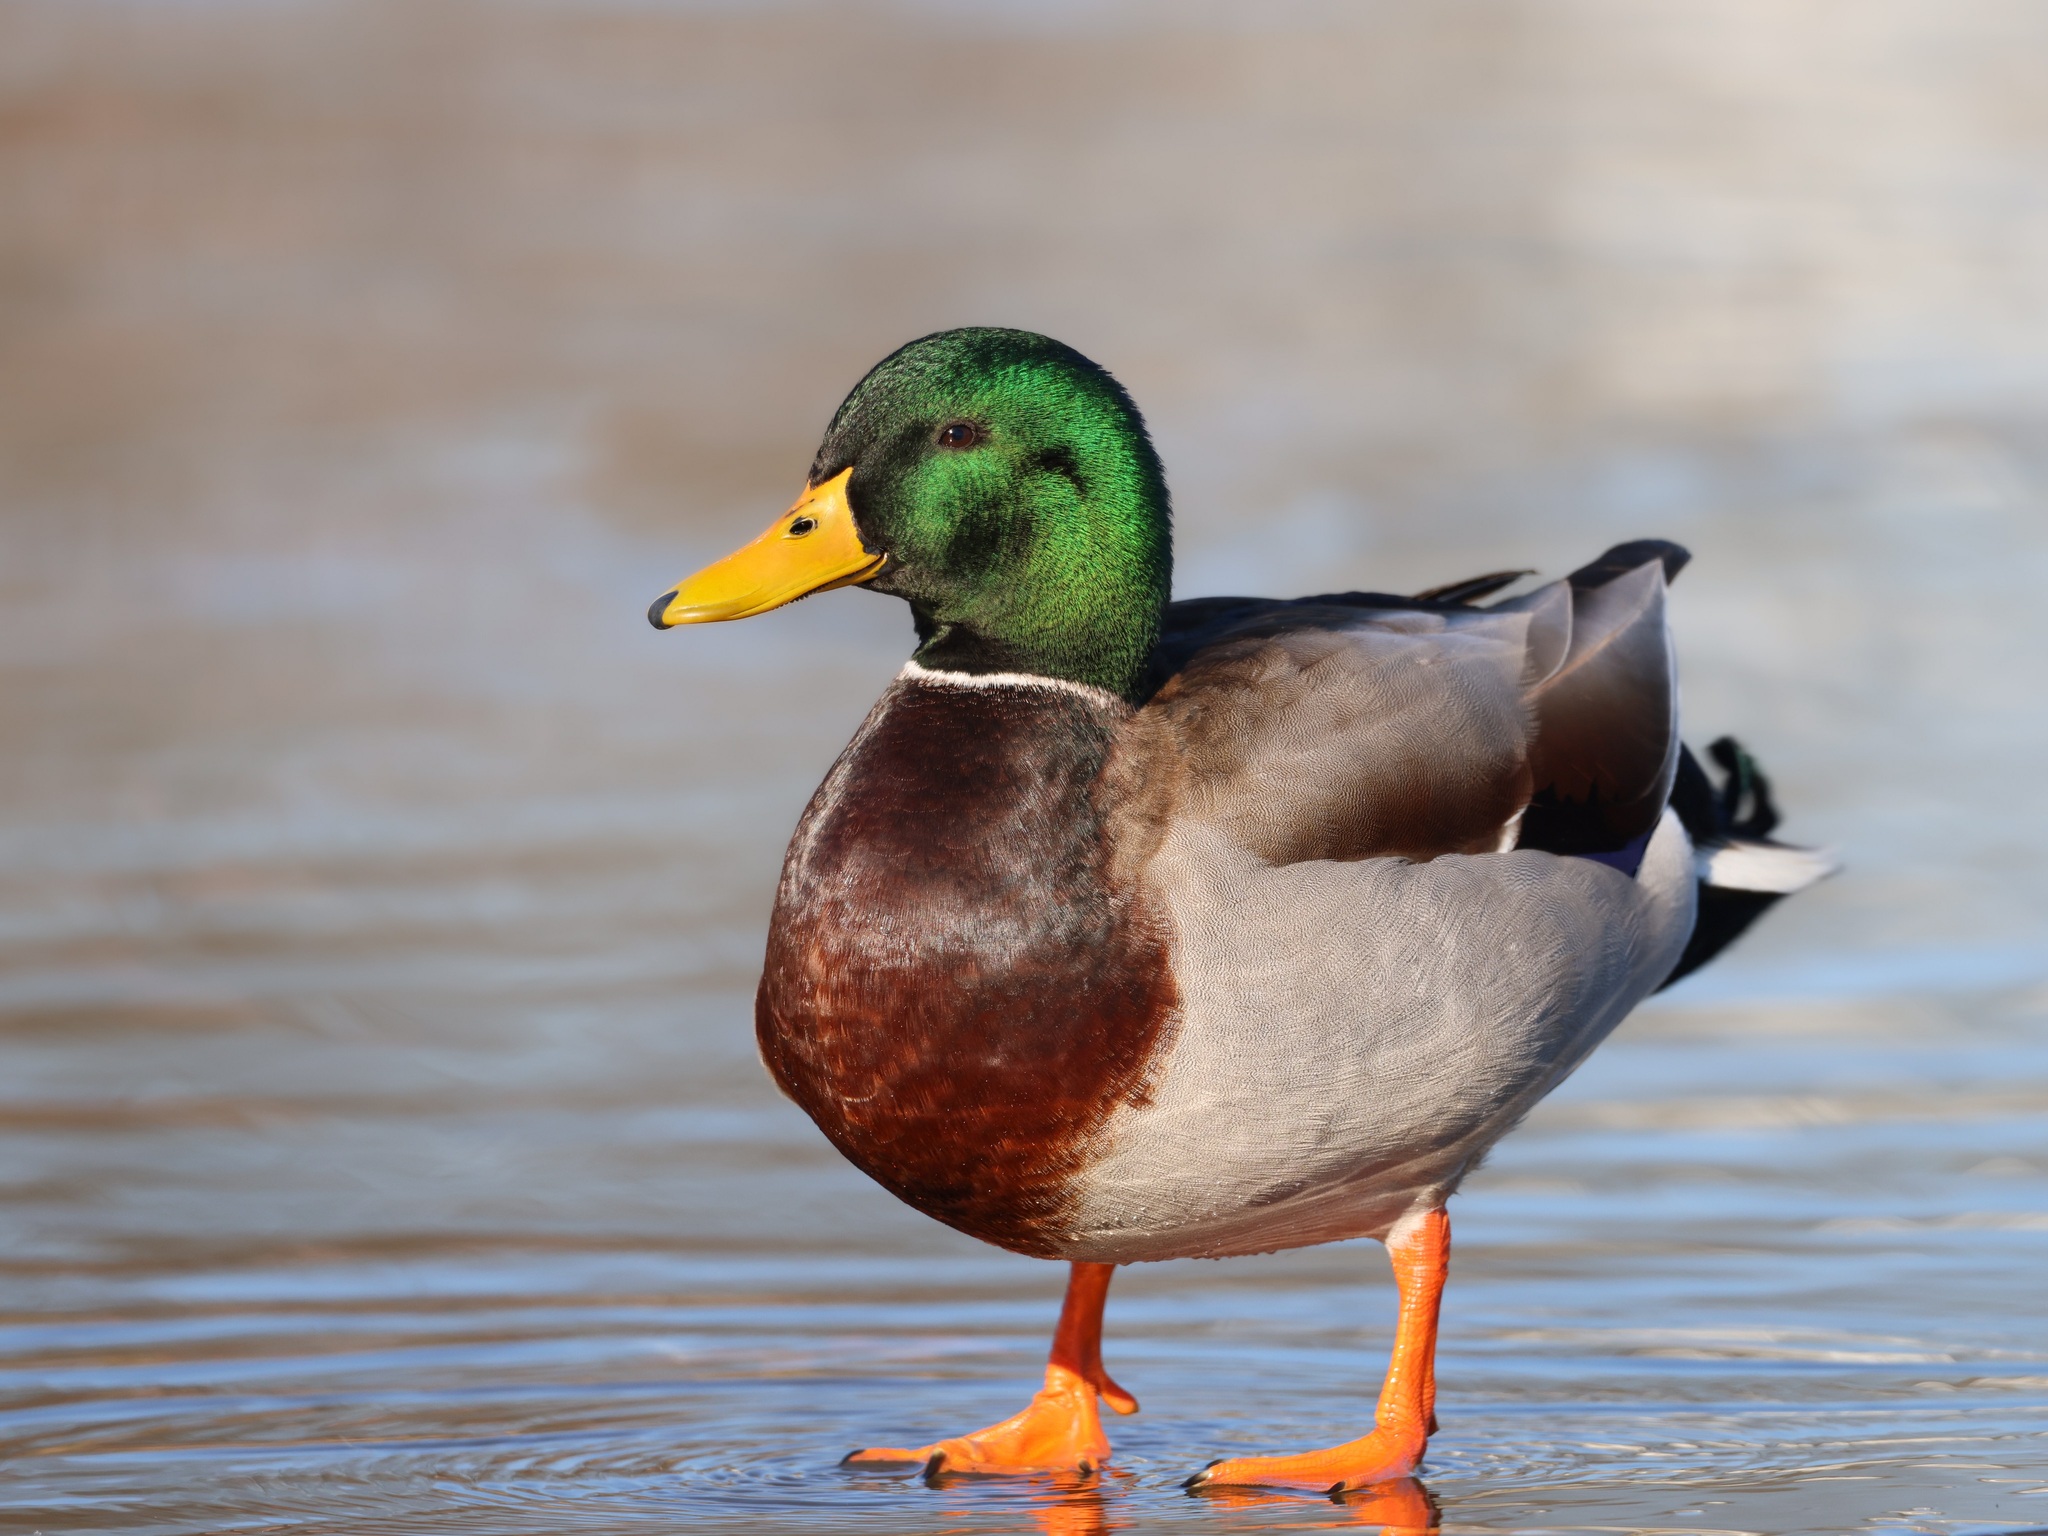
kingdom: Animalia
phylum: Chordata
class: Aves
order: Anseriformes
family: Anatidae
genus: Anas
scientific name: Anas platyrhynchos
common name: Mallard
